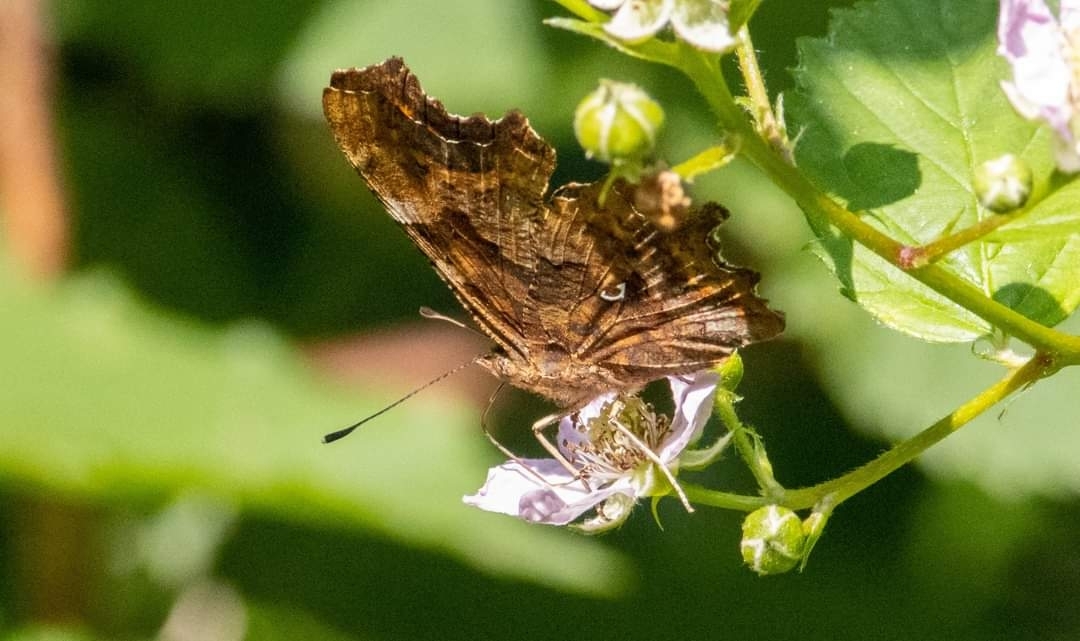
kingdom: Animalia
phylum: Arthropoda
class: Insecta
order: Lepidoptera
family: Nymphalidae
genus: Polygonia
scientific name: Polygonia c-album
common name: Comma
